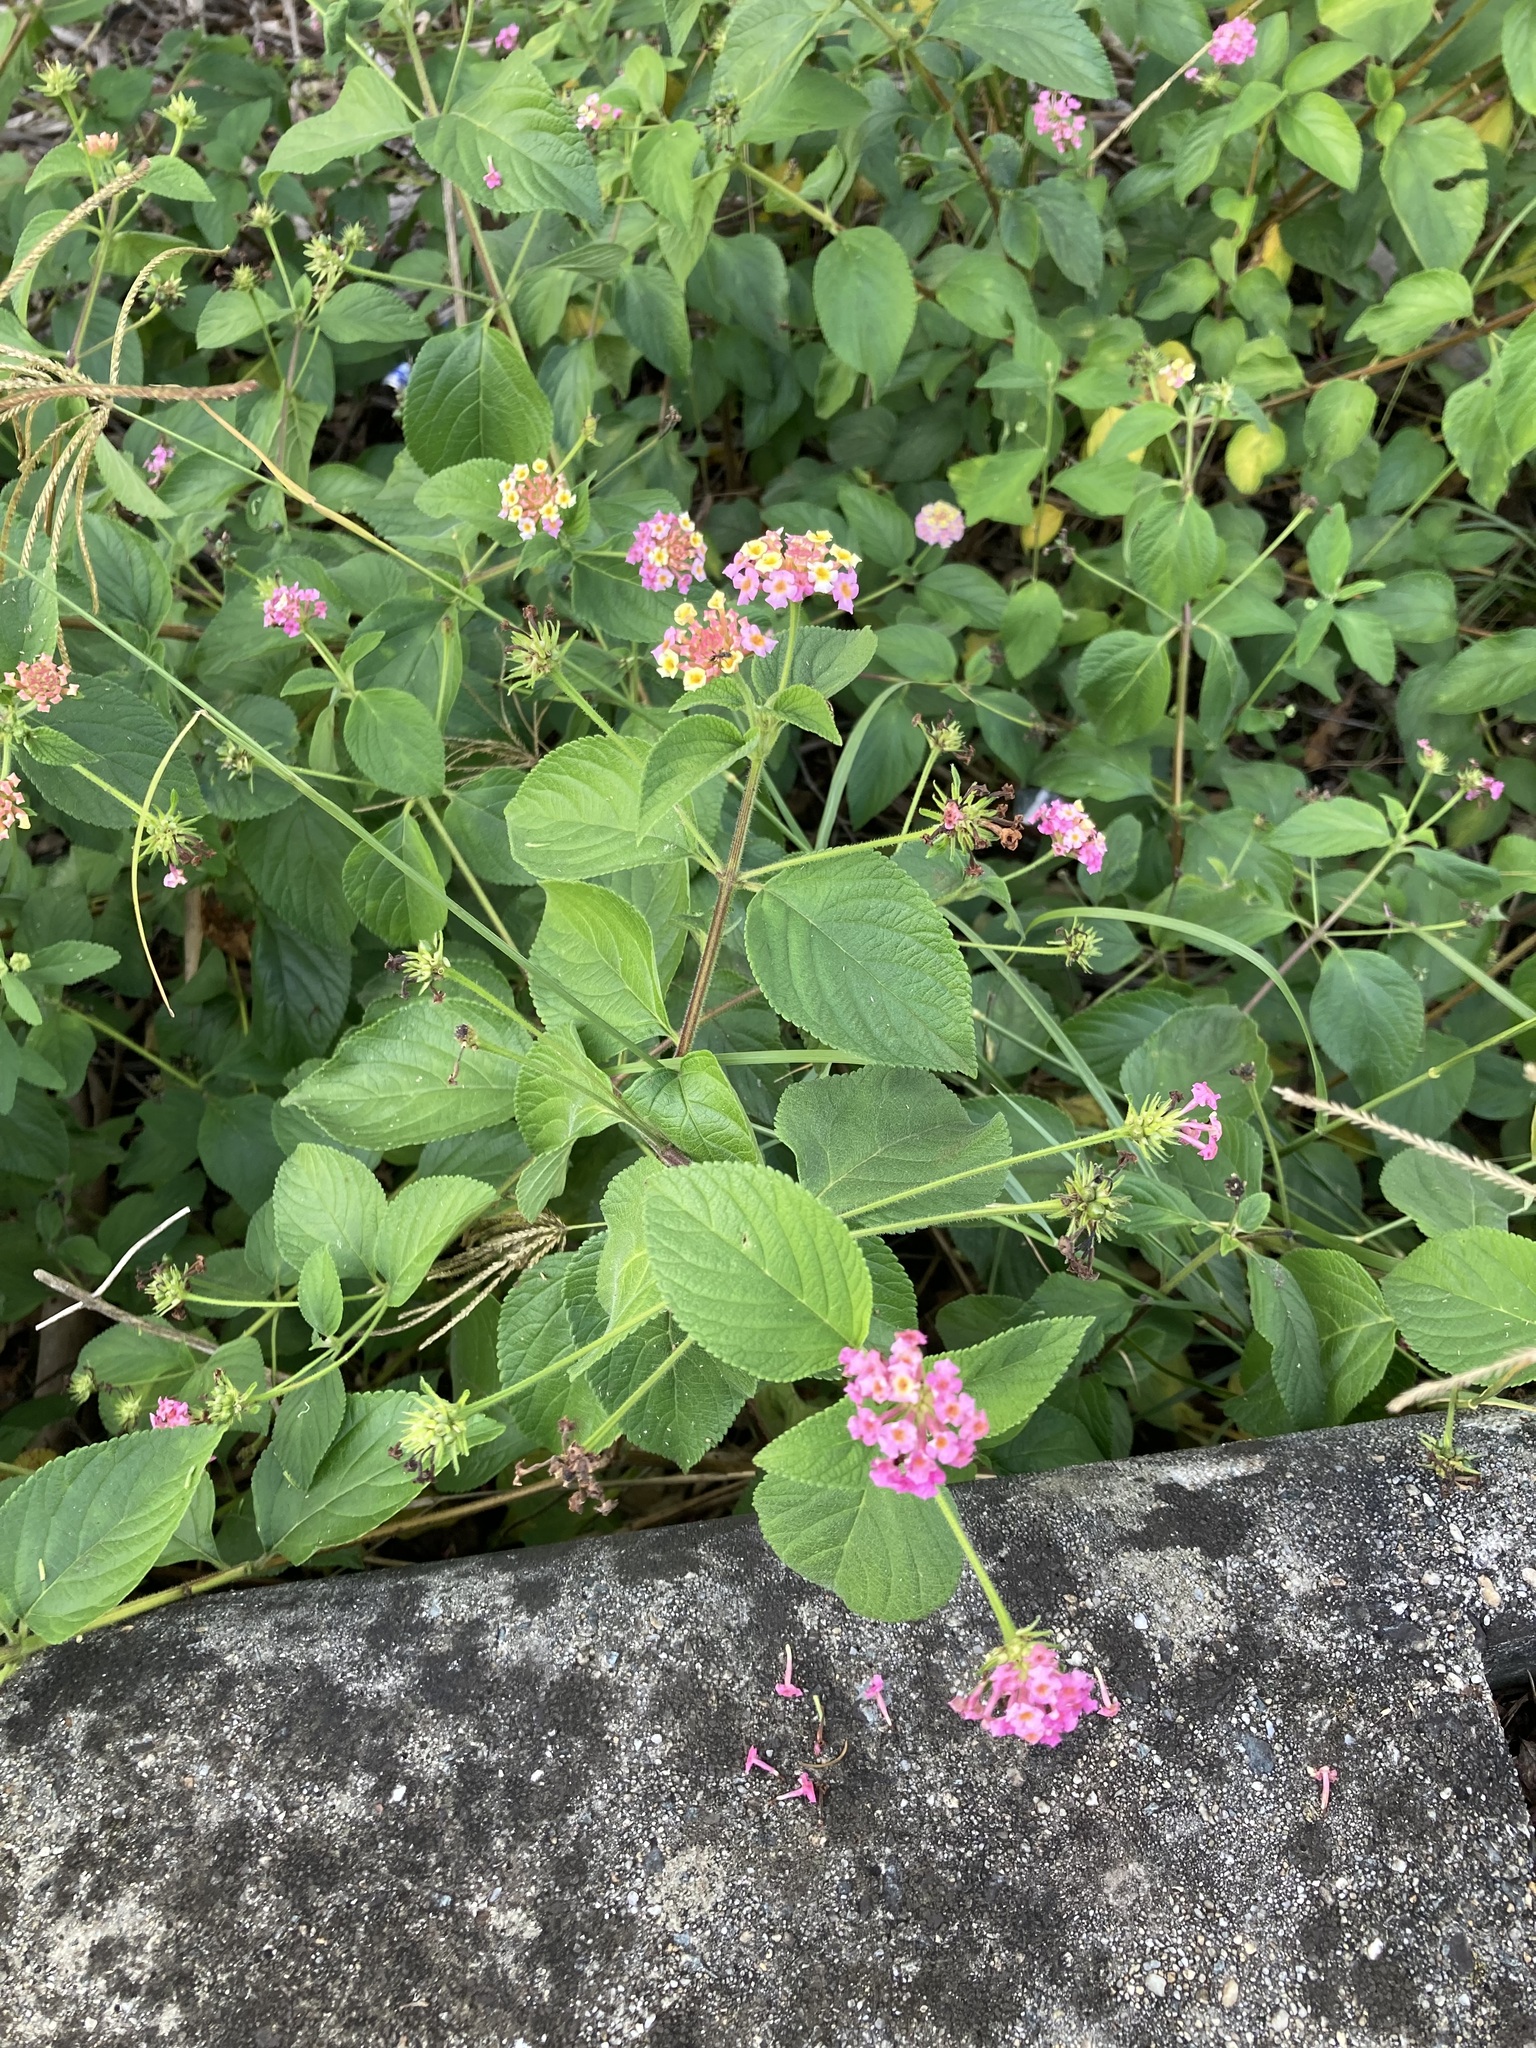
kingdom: Plantae
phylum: Tracheophyta
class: Magnoliopsida
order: Lamiales
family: Verbenaceae
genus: Lantana
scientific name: Lantana camara
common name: Lantana
